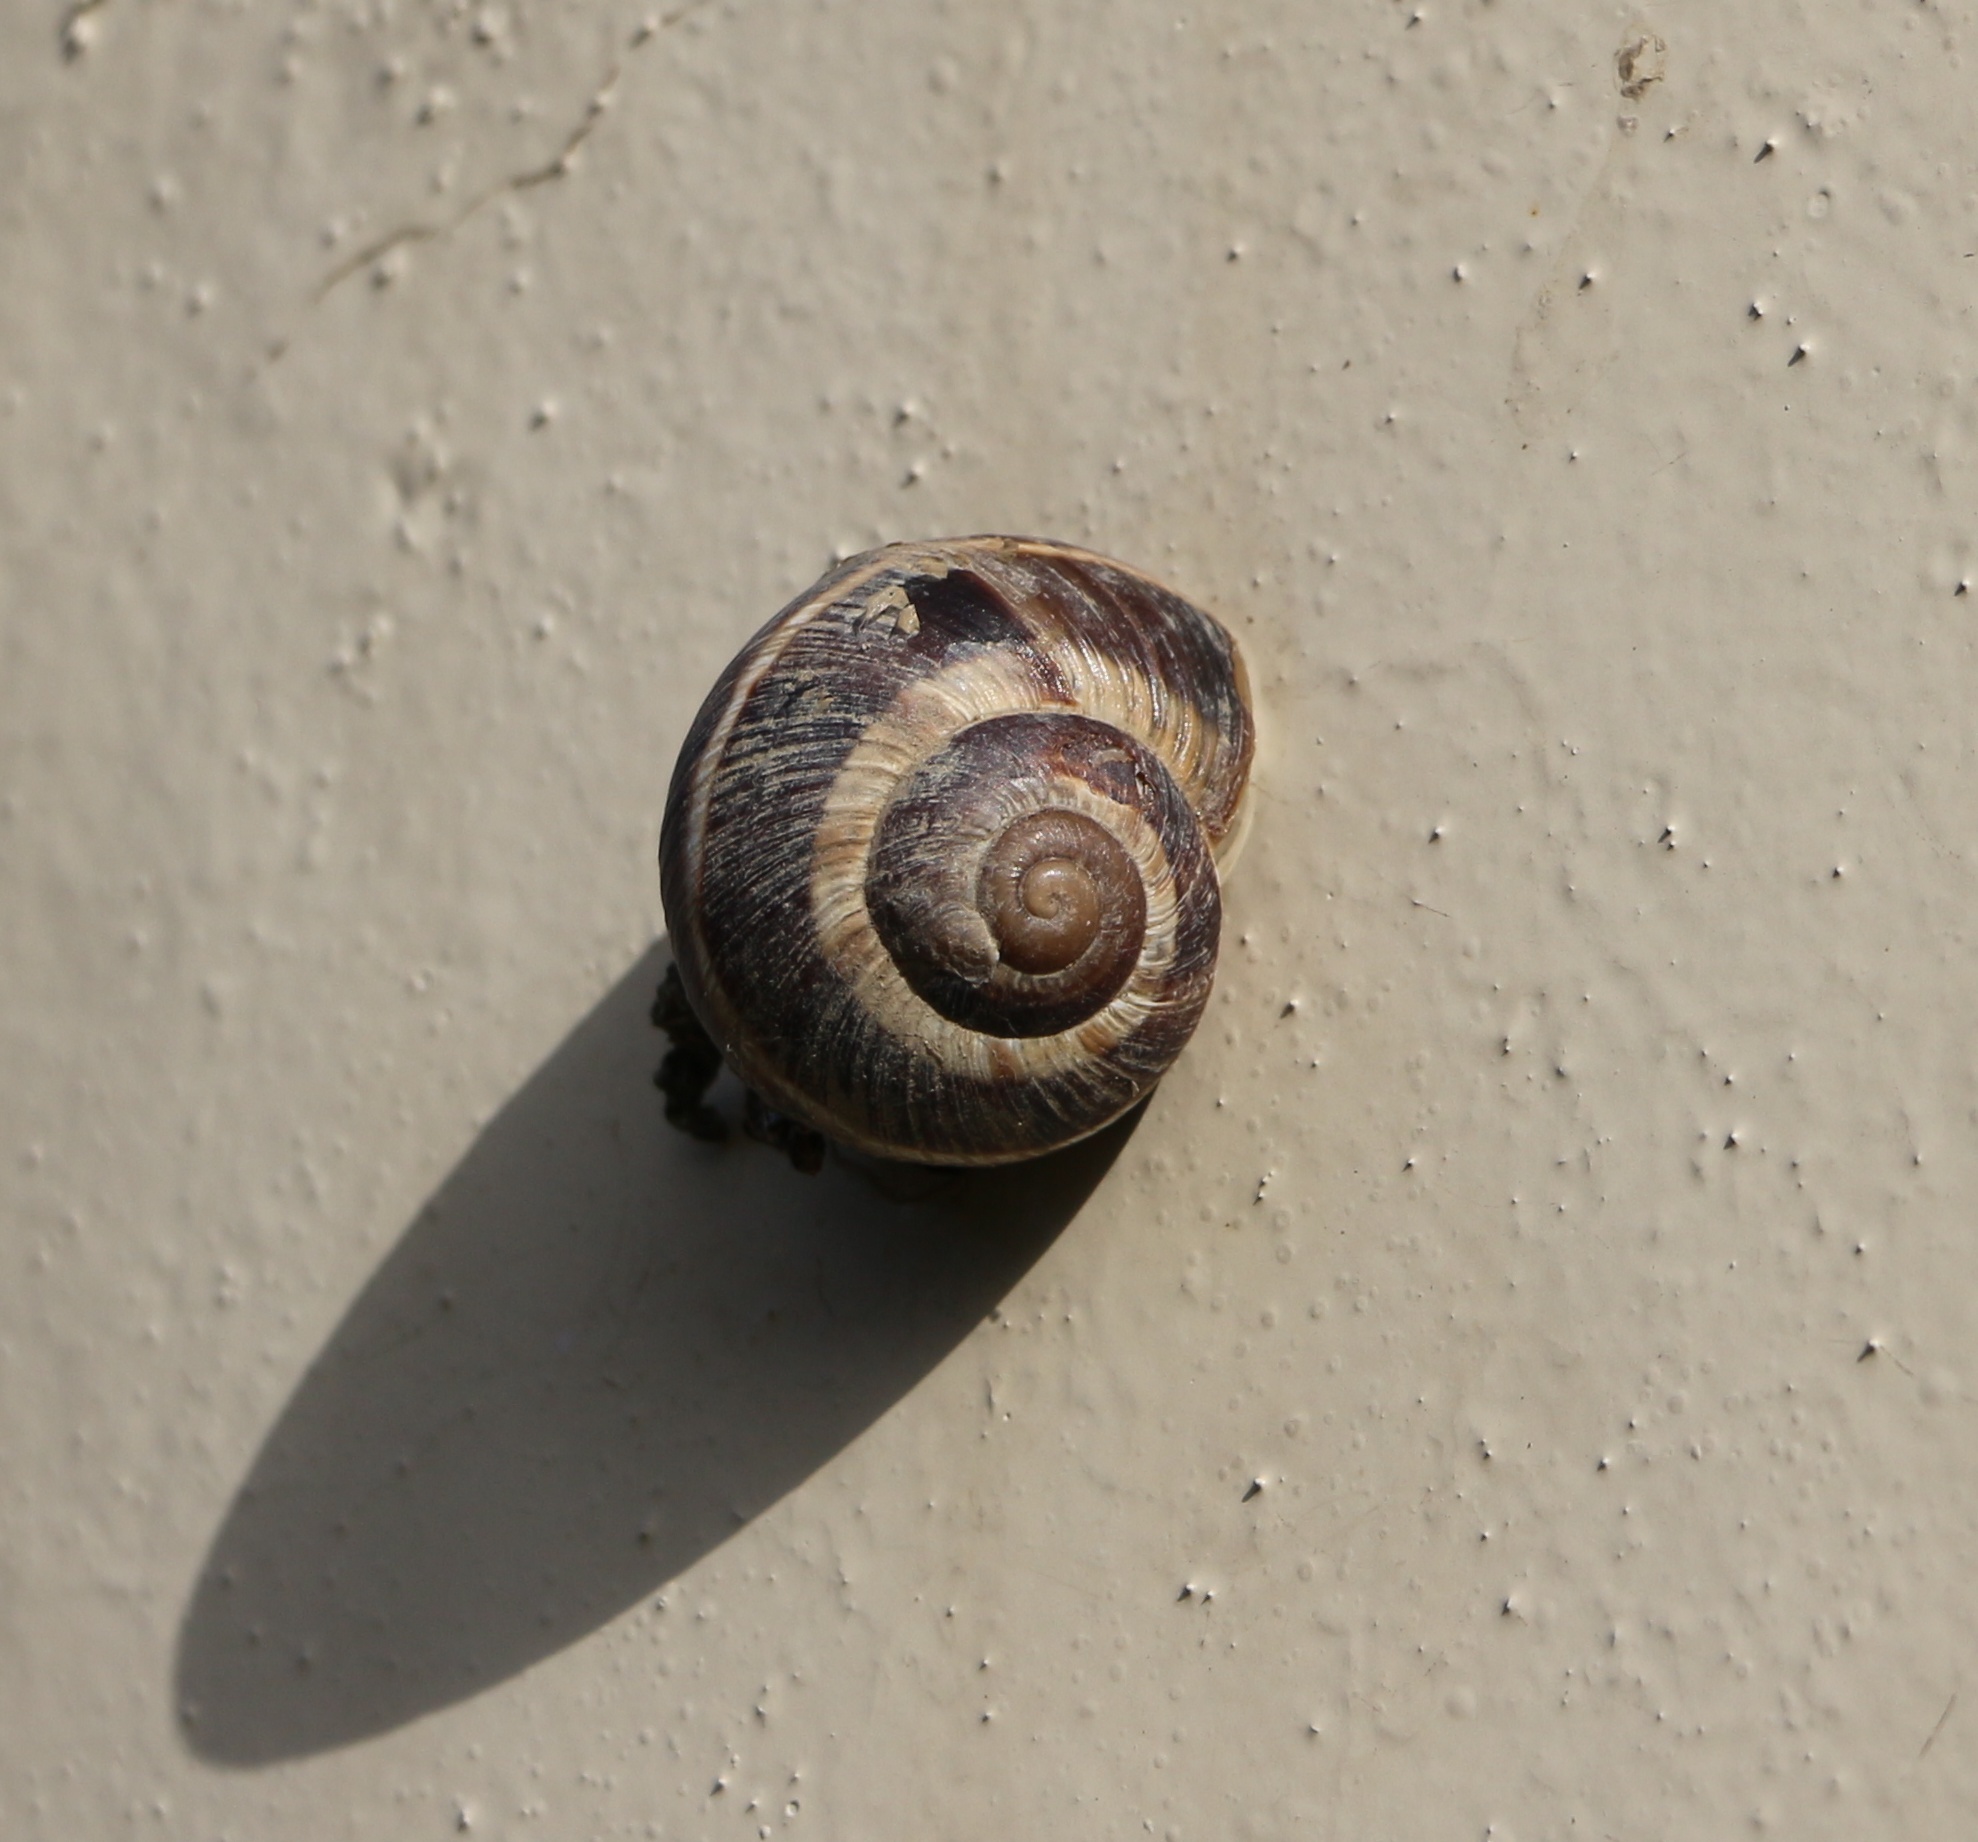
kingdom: Animalia
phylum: Mollusca
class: Gastropoda
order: Stylommatophora
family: Helicidae
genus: Helix
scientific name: Helix lucorum
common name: Turkish snail
